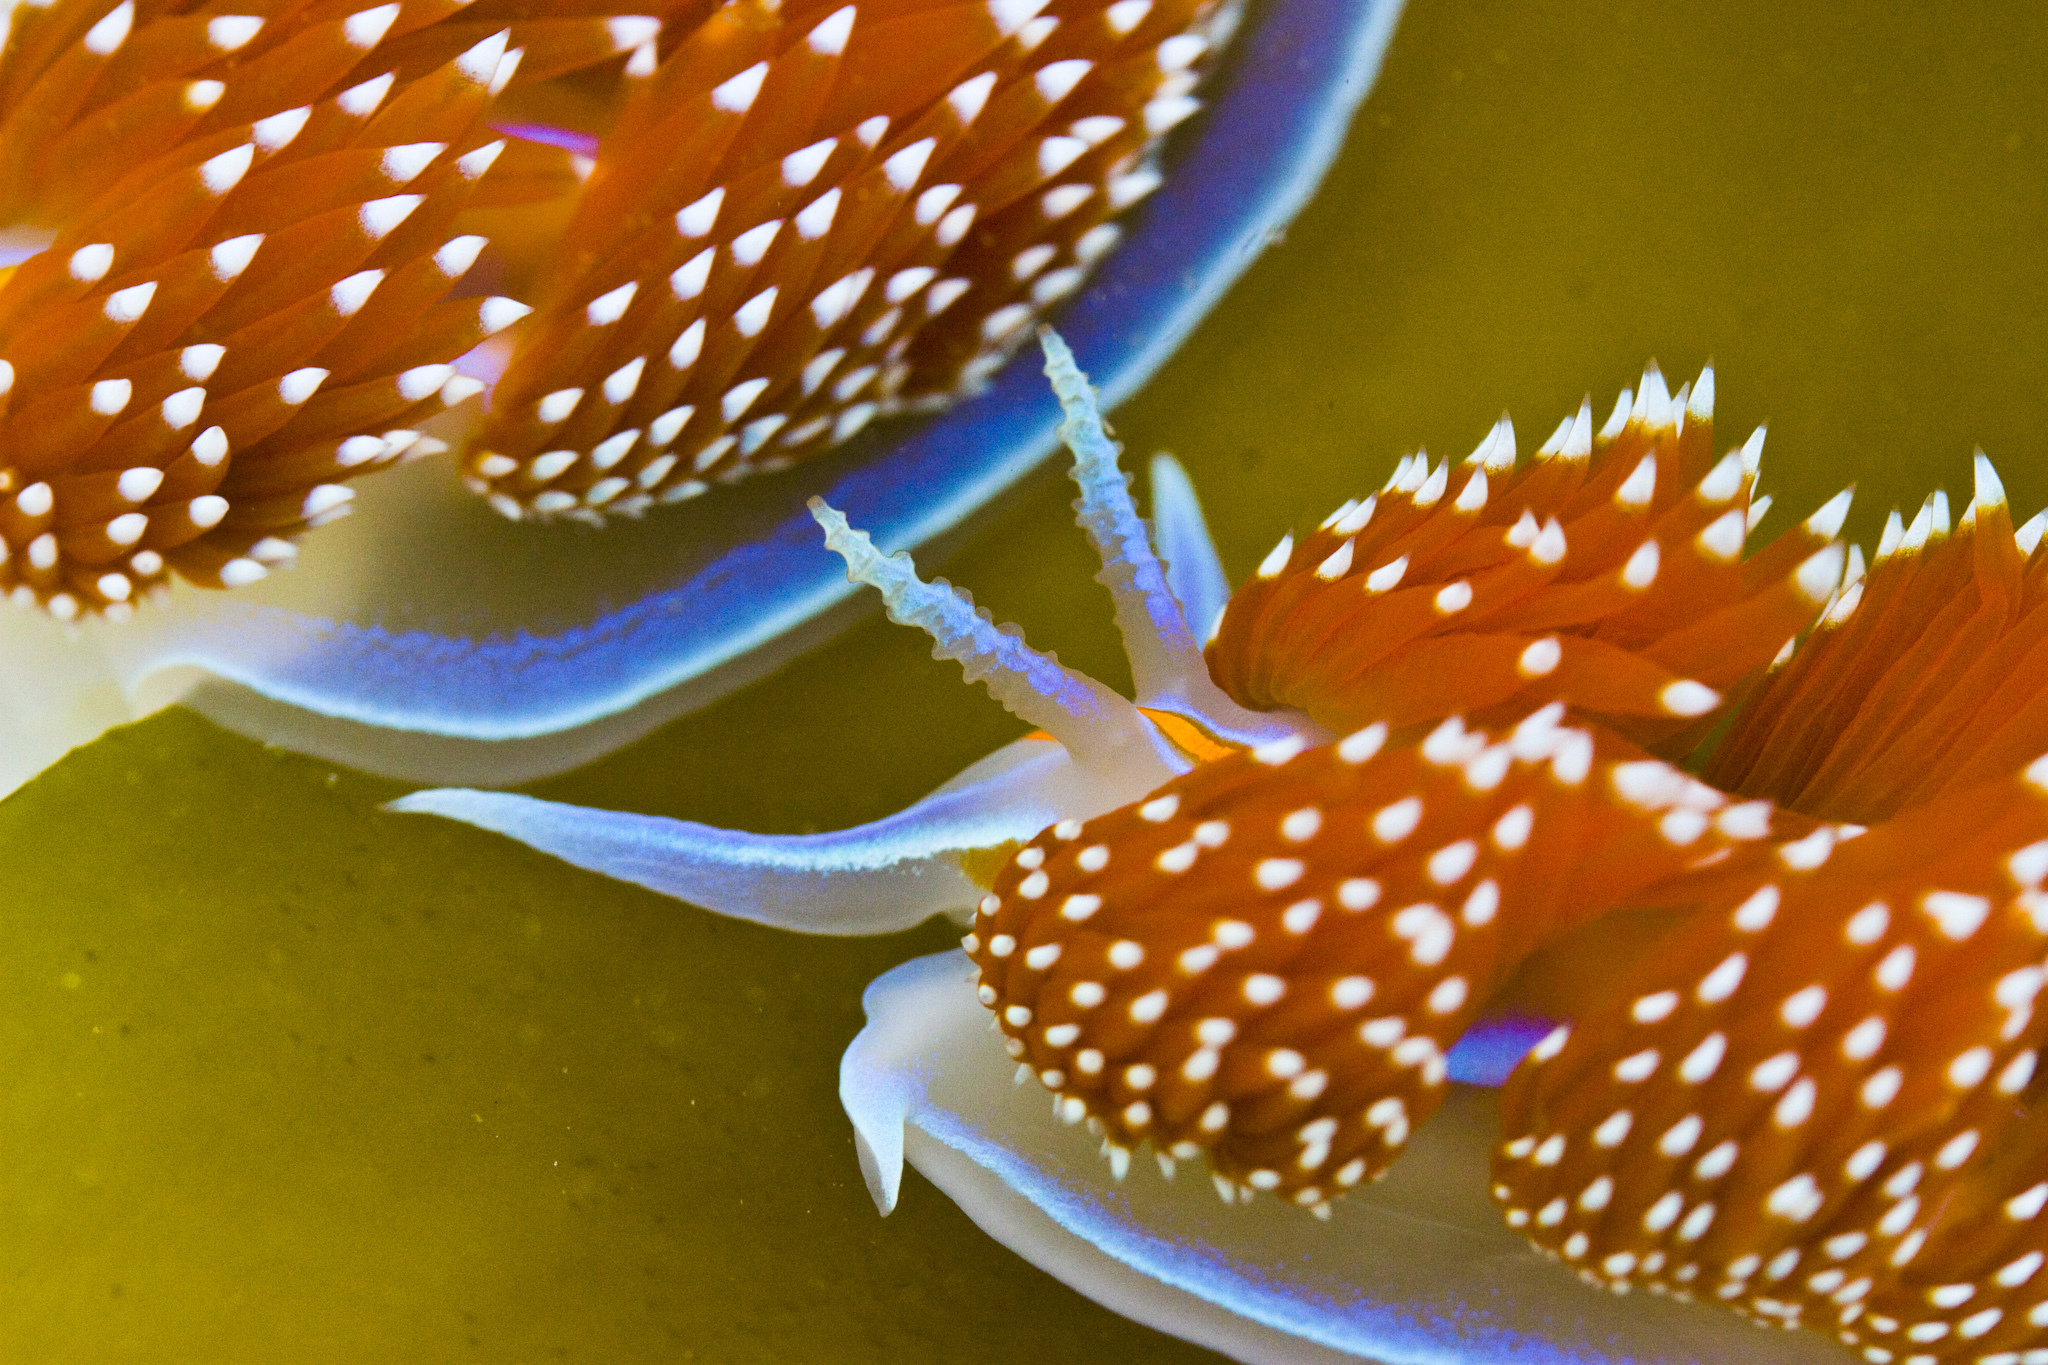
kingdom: Animalia
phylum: Mollusca
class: Gastropoda
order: Nudibranchia
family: Myrrhinidae
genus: Hermissenda
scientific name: Hermissenda opalescens
